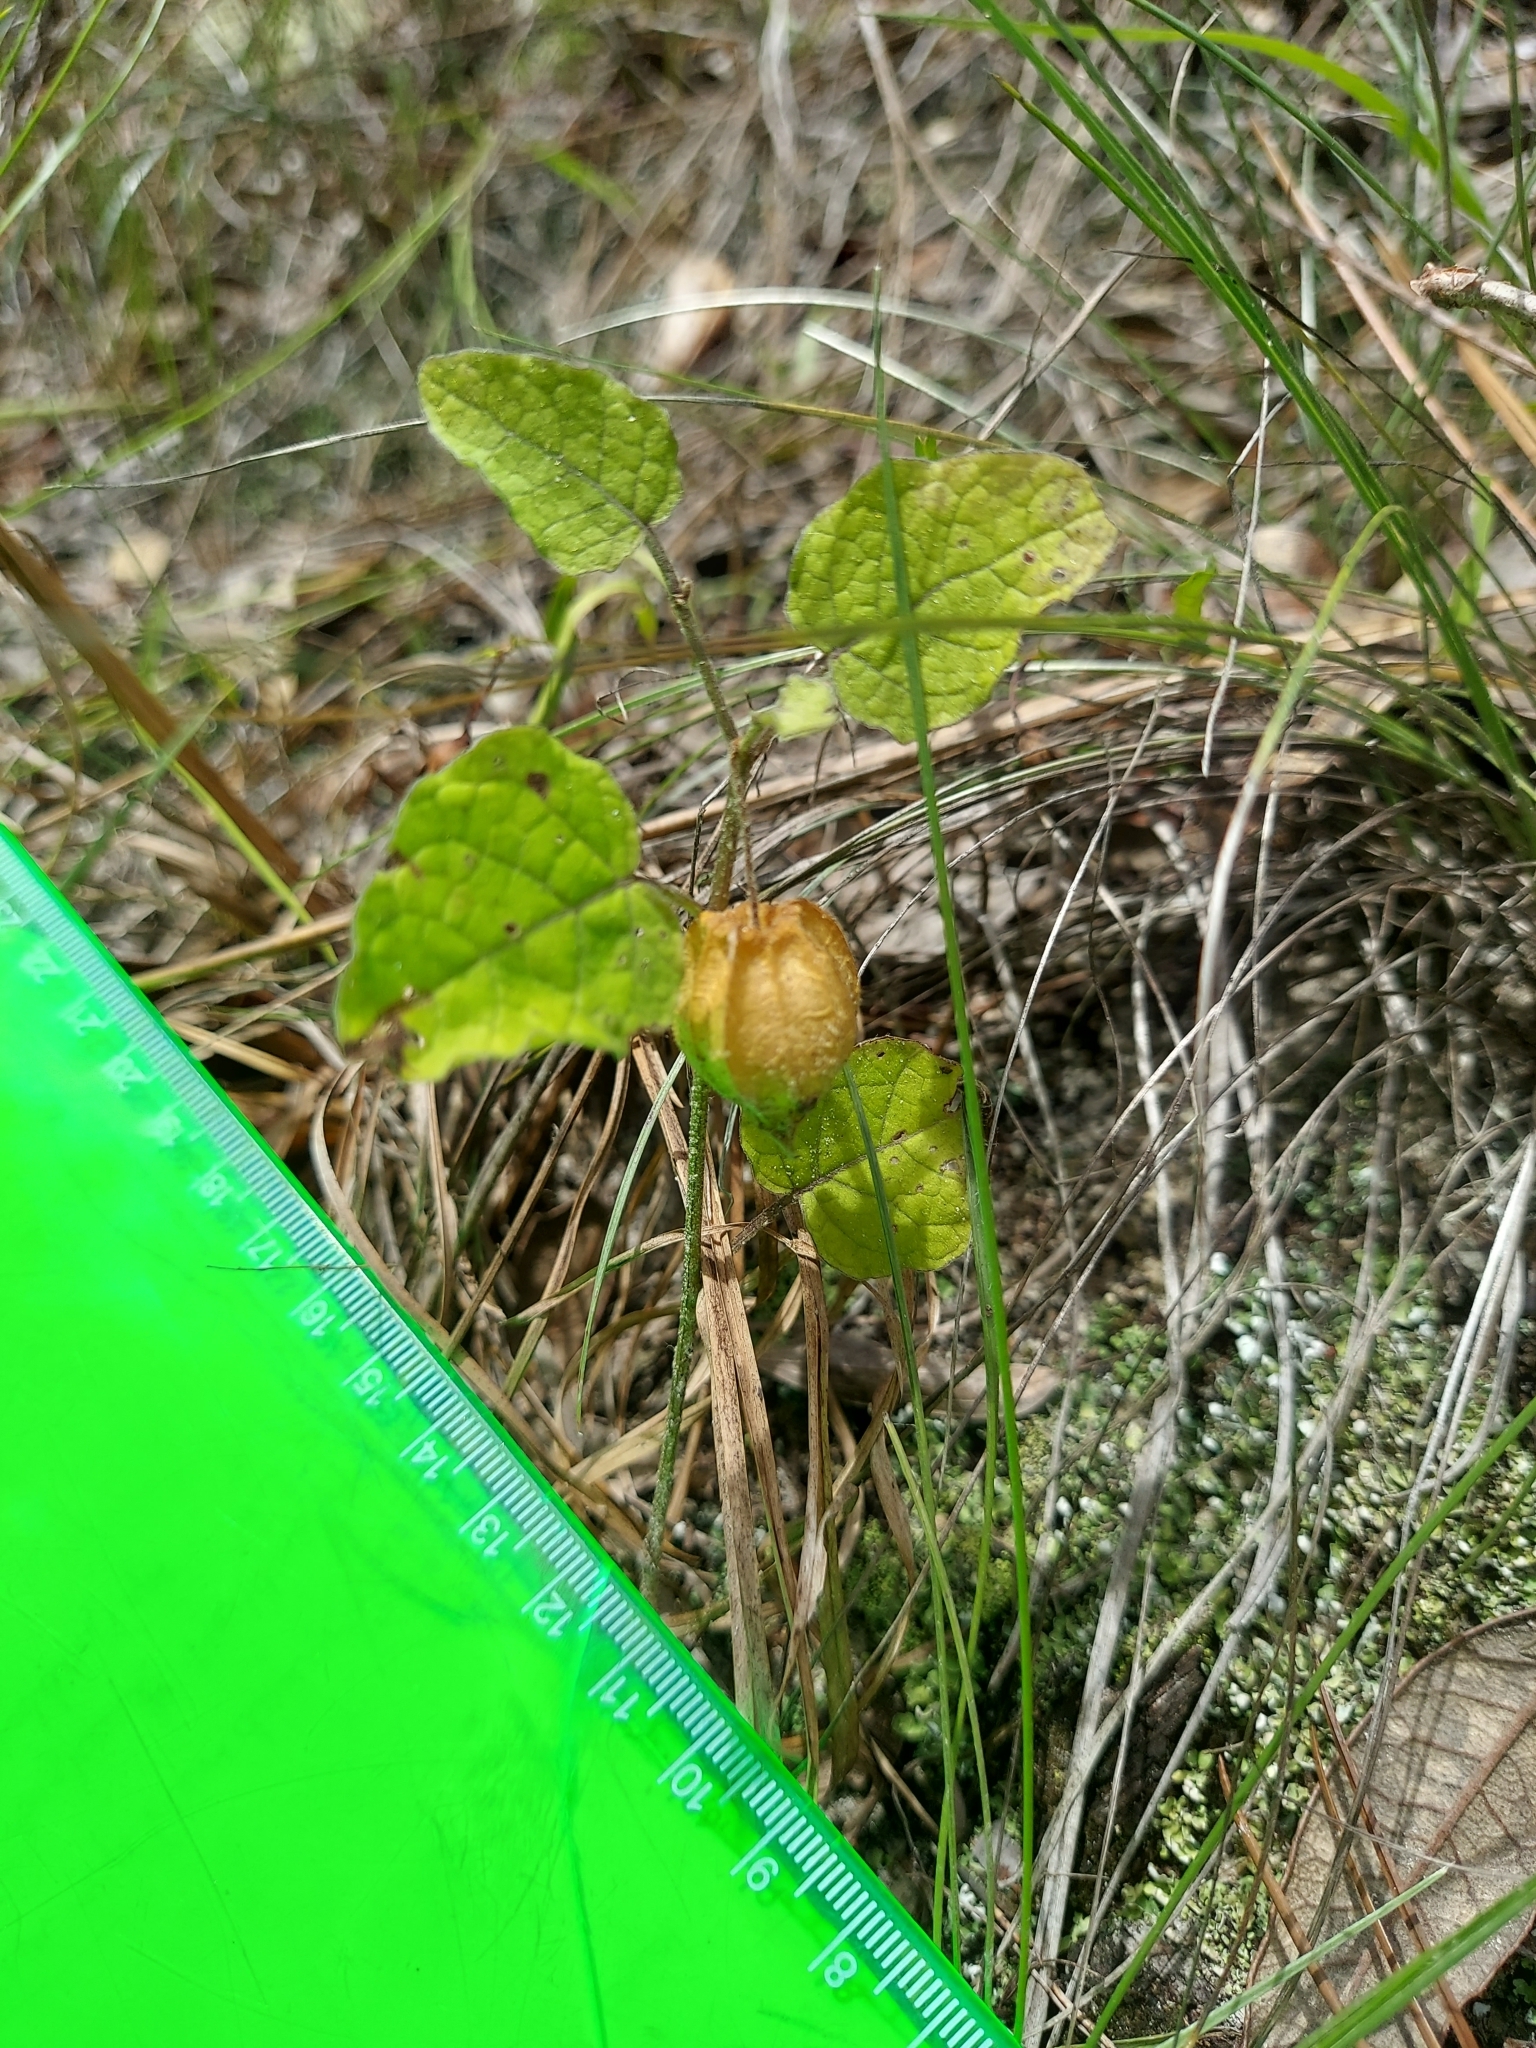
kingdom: Plantae
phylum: Tracheophyta
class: Magnoliopsida
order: Solanales
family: Solanaceae
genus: Physalis
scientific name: Physalis arenicola
